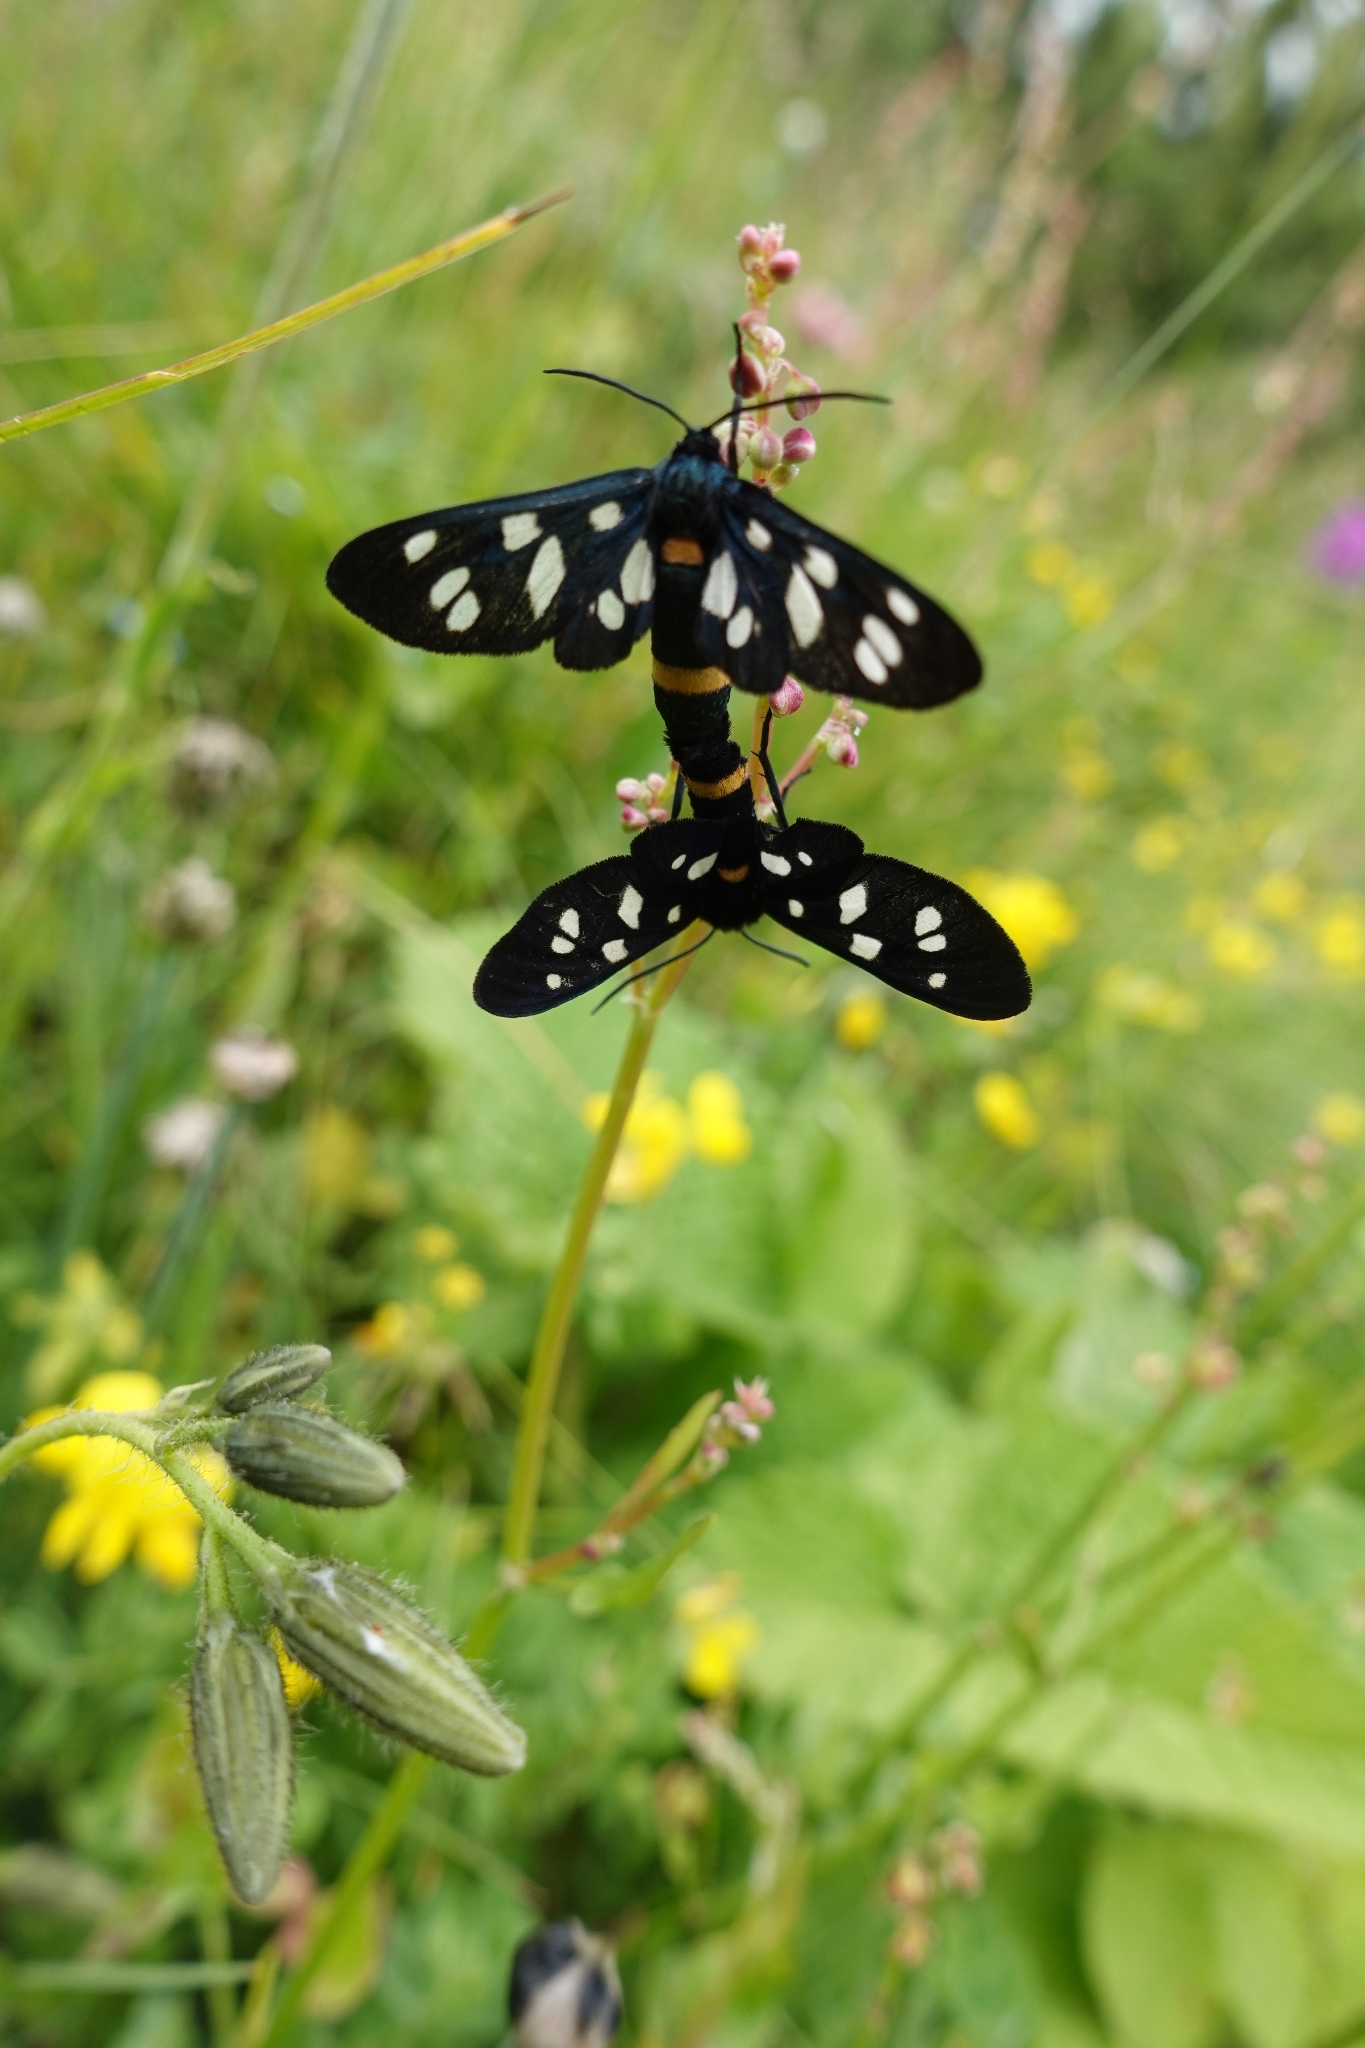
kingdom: Animalia
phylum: Arthropoda
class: Insecta
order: Lepidoptera
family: Erebidae
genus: Amata
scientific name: Amata nigricornis
